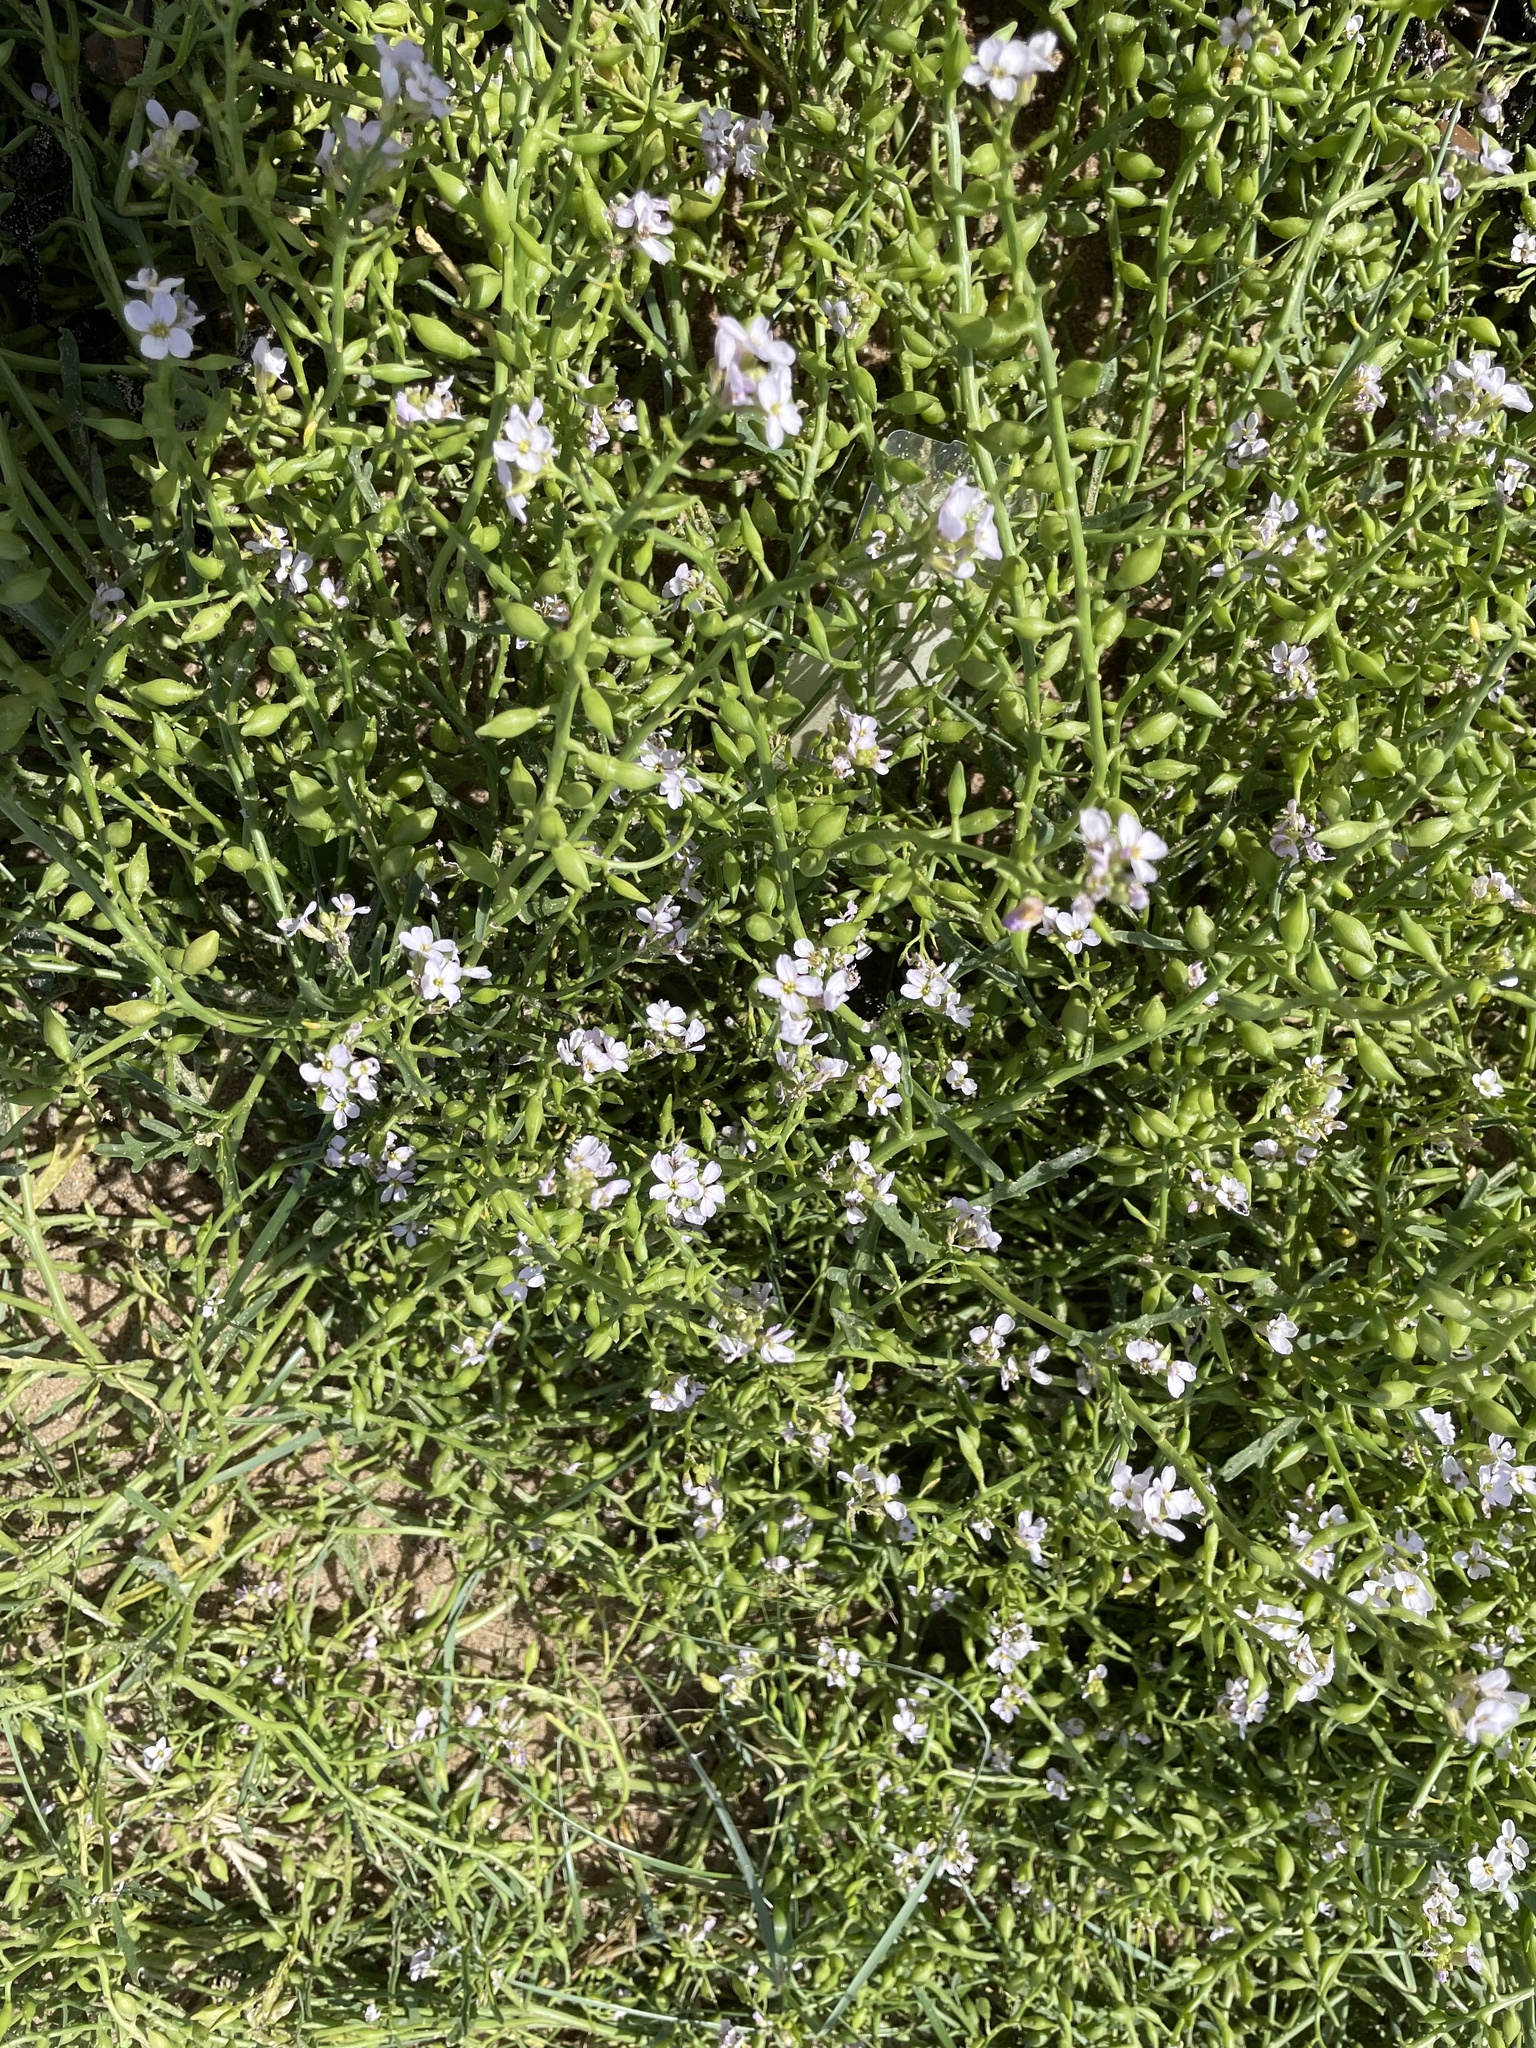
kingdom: Plantae
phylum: Tracheophyta
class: Magnoliopsida
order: Brassicales
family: Brassicaceae
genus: Cakile
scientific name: Cakile maritima
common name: Sea rocket
